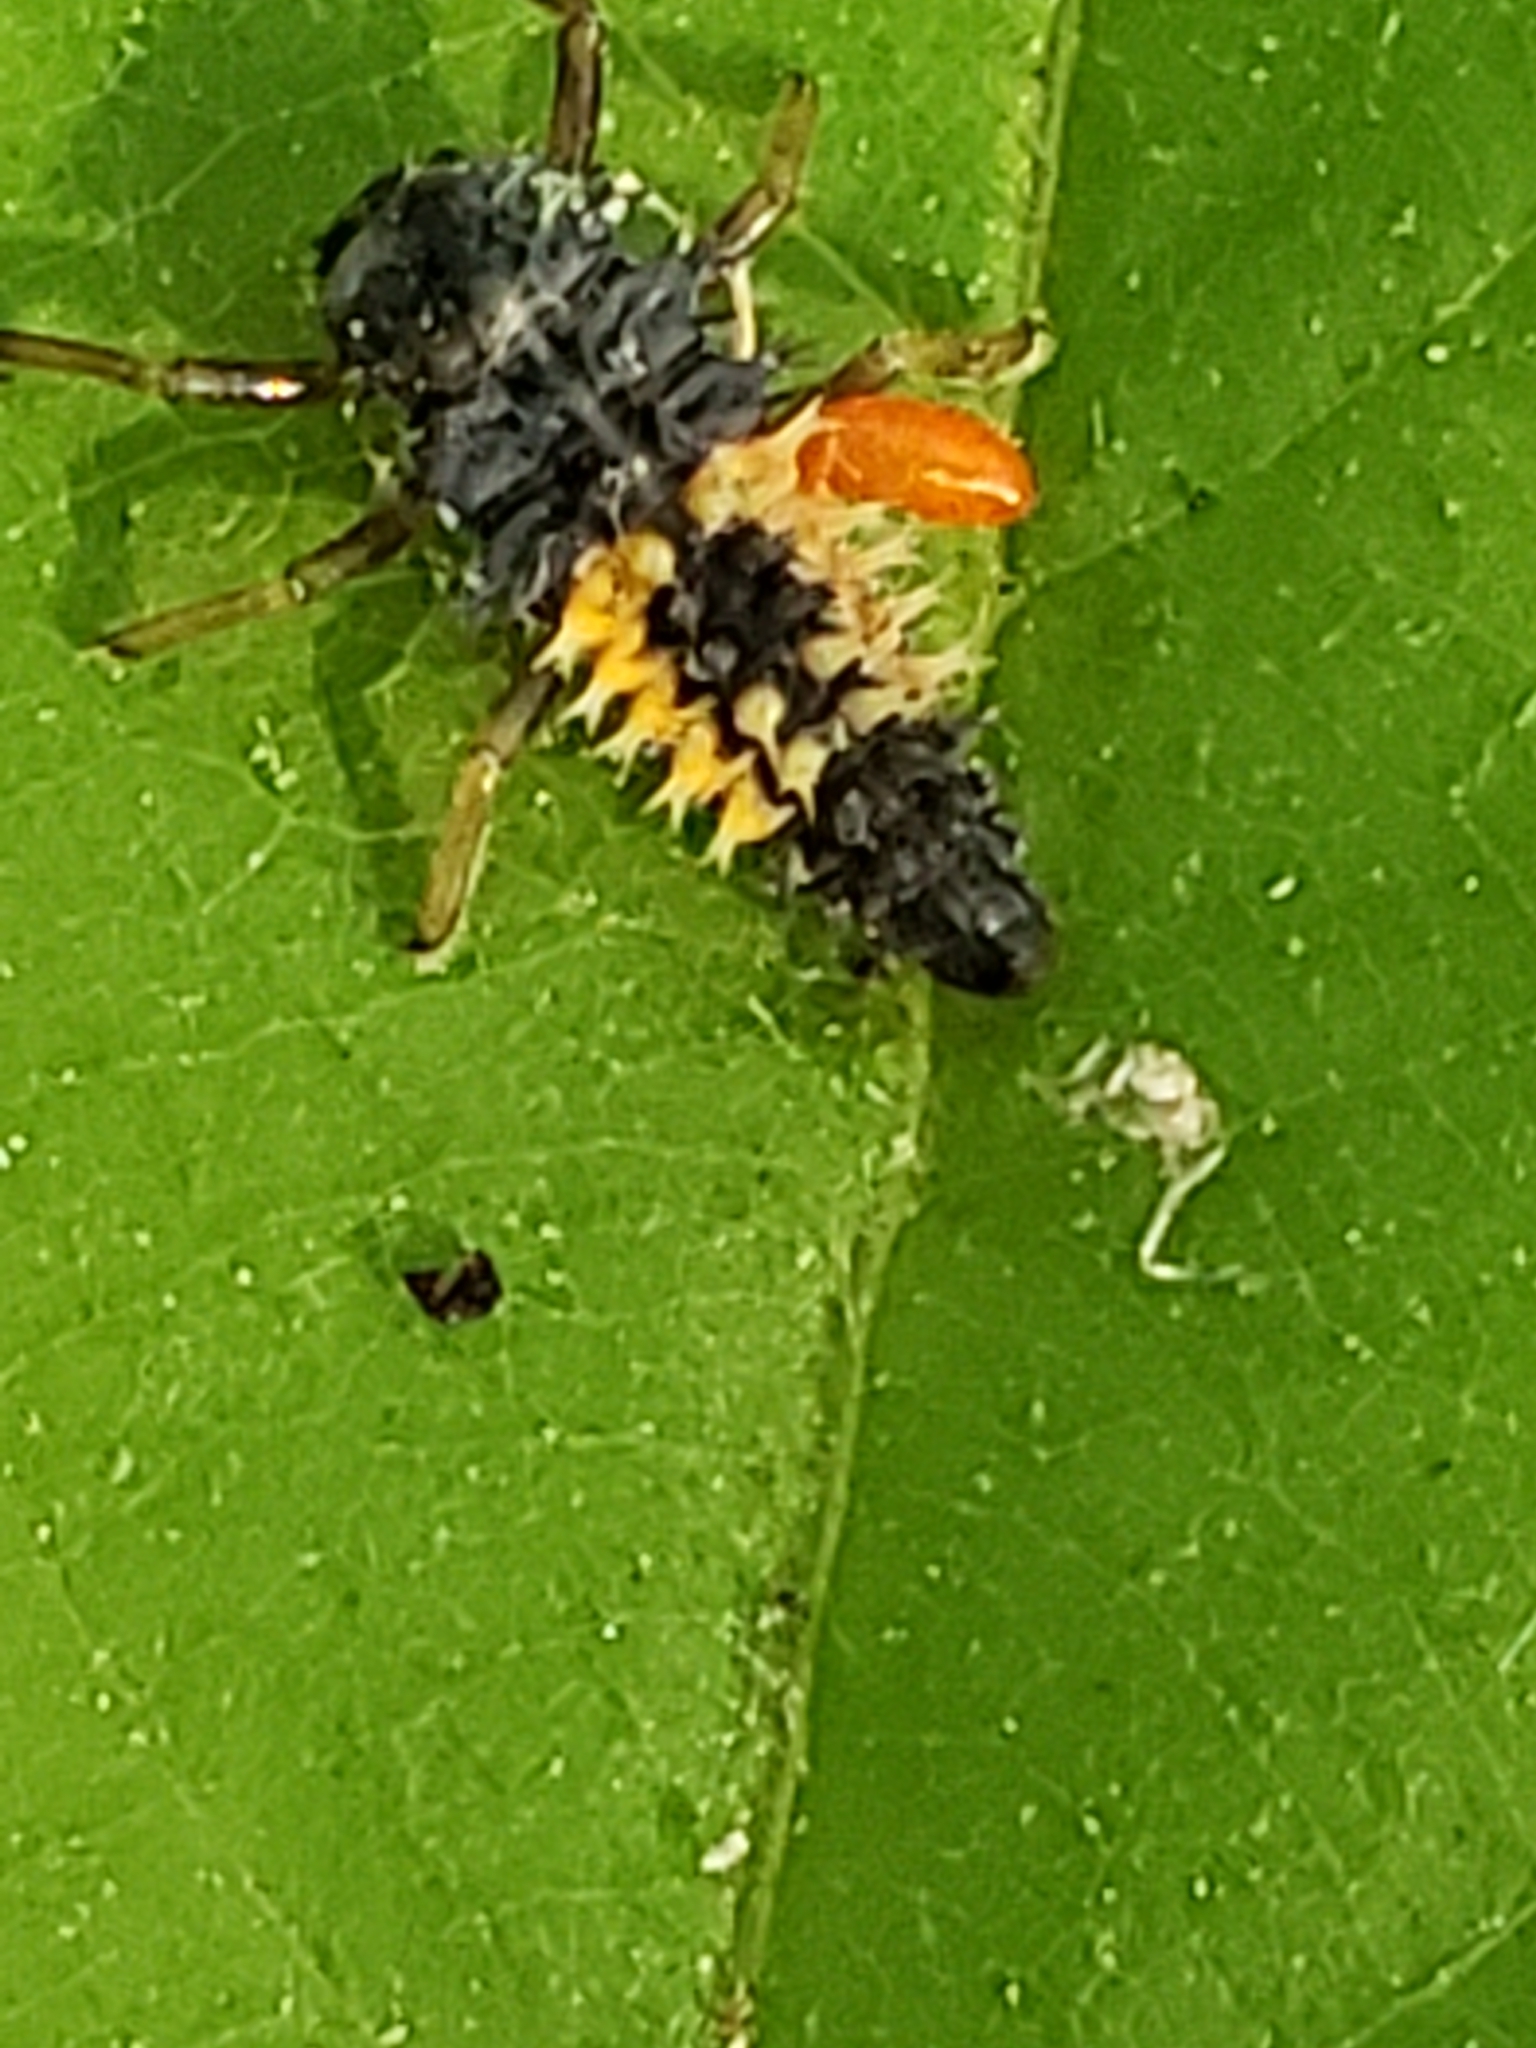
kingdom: Animalia
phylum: Arthropoda
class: Insecta
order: Coleoptera
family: Coccinellidae
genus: Harmonia
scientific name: Harmonia axyridis
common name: Harlequin ladybird
